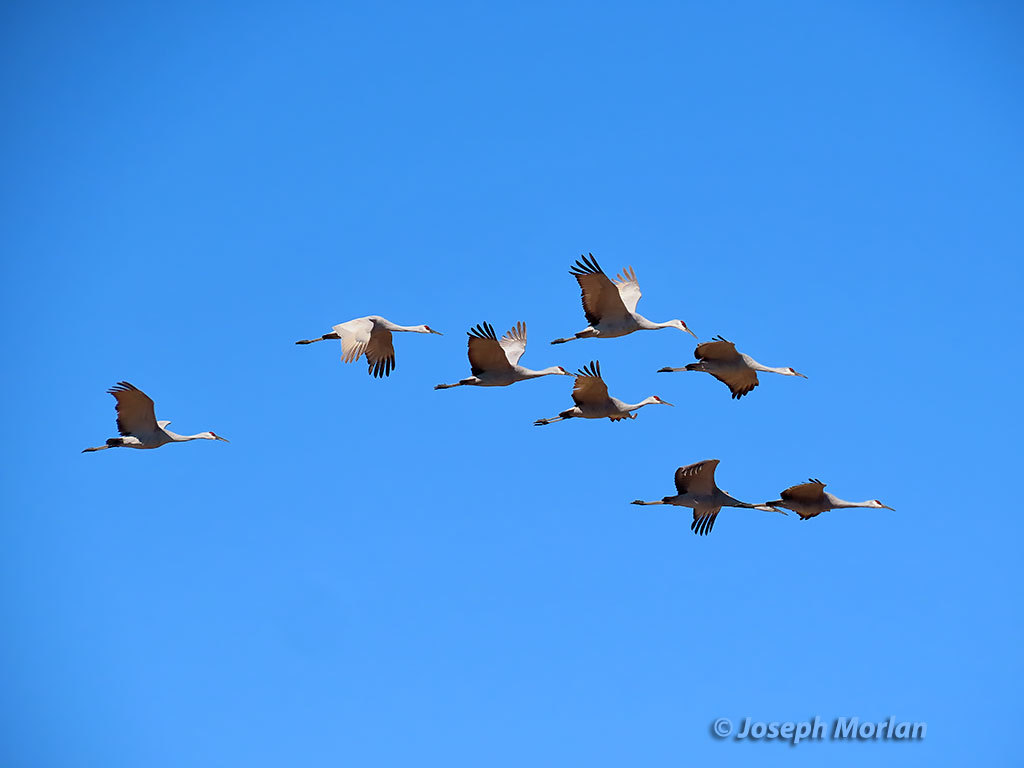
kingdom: Animalia
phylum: Chordata
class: Aves
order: Gruiformes
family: Gruidae
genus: Grus
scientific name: Grus canadensis
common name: Sandhill crane
